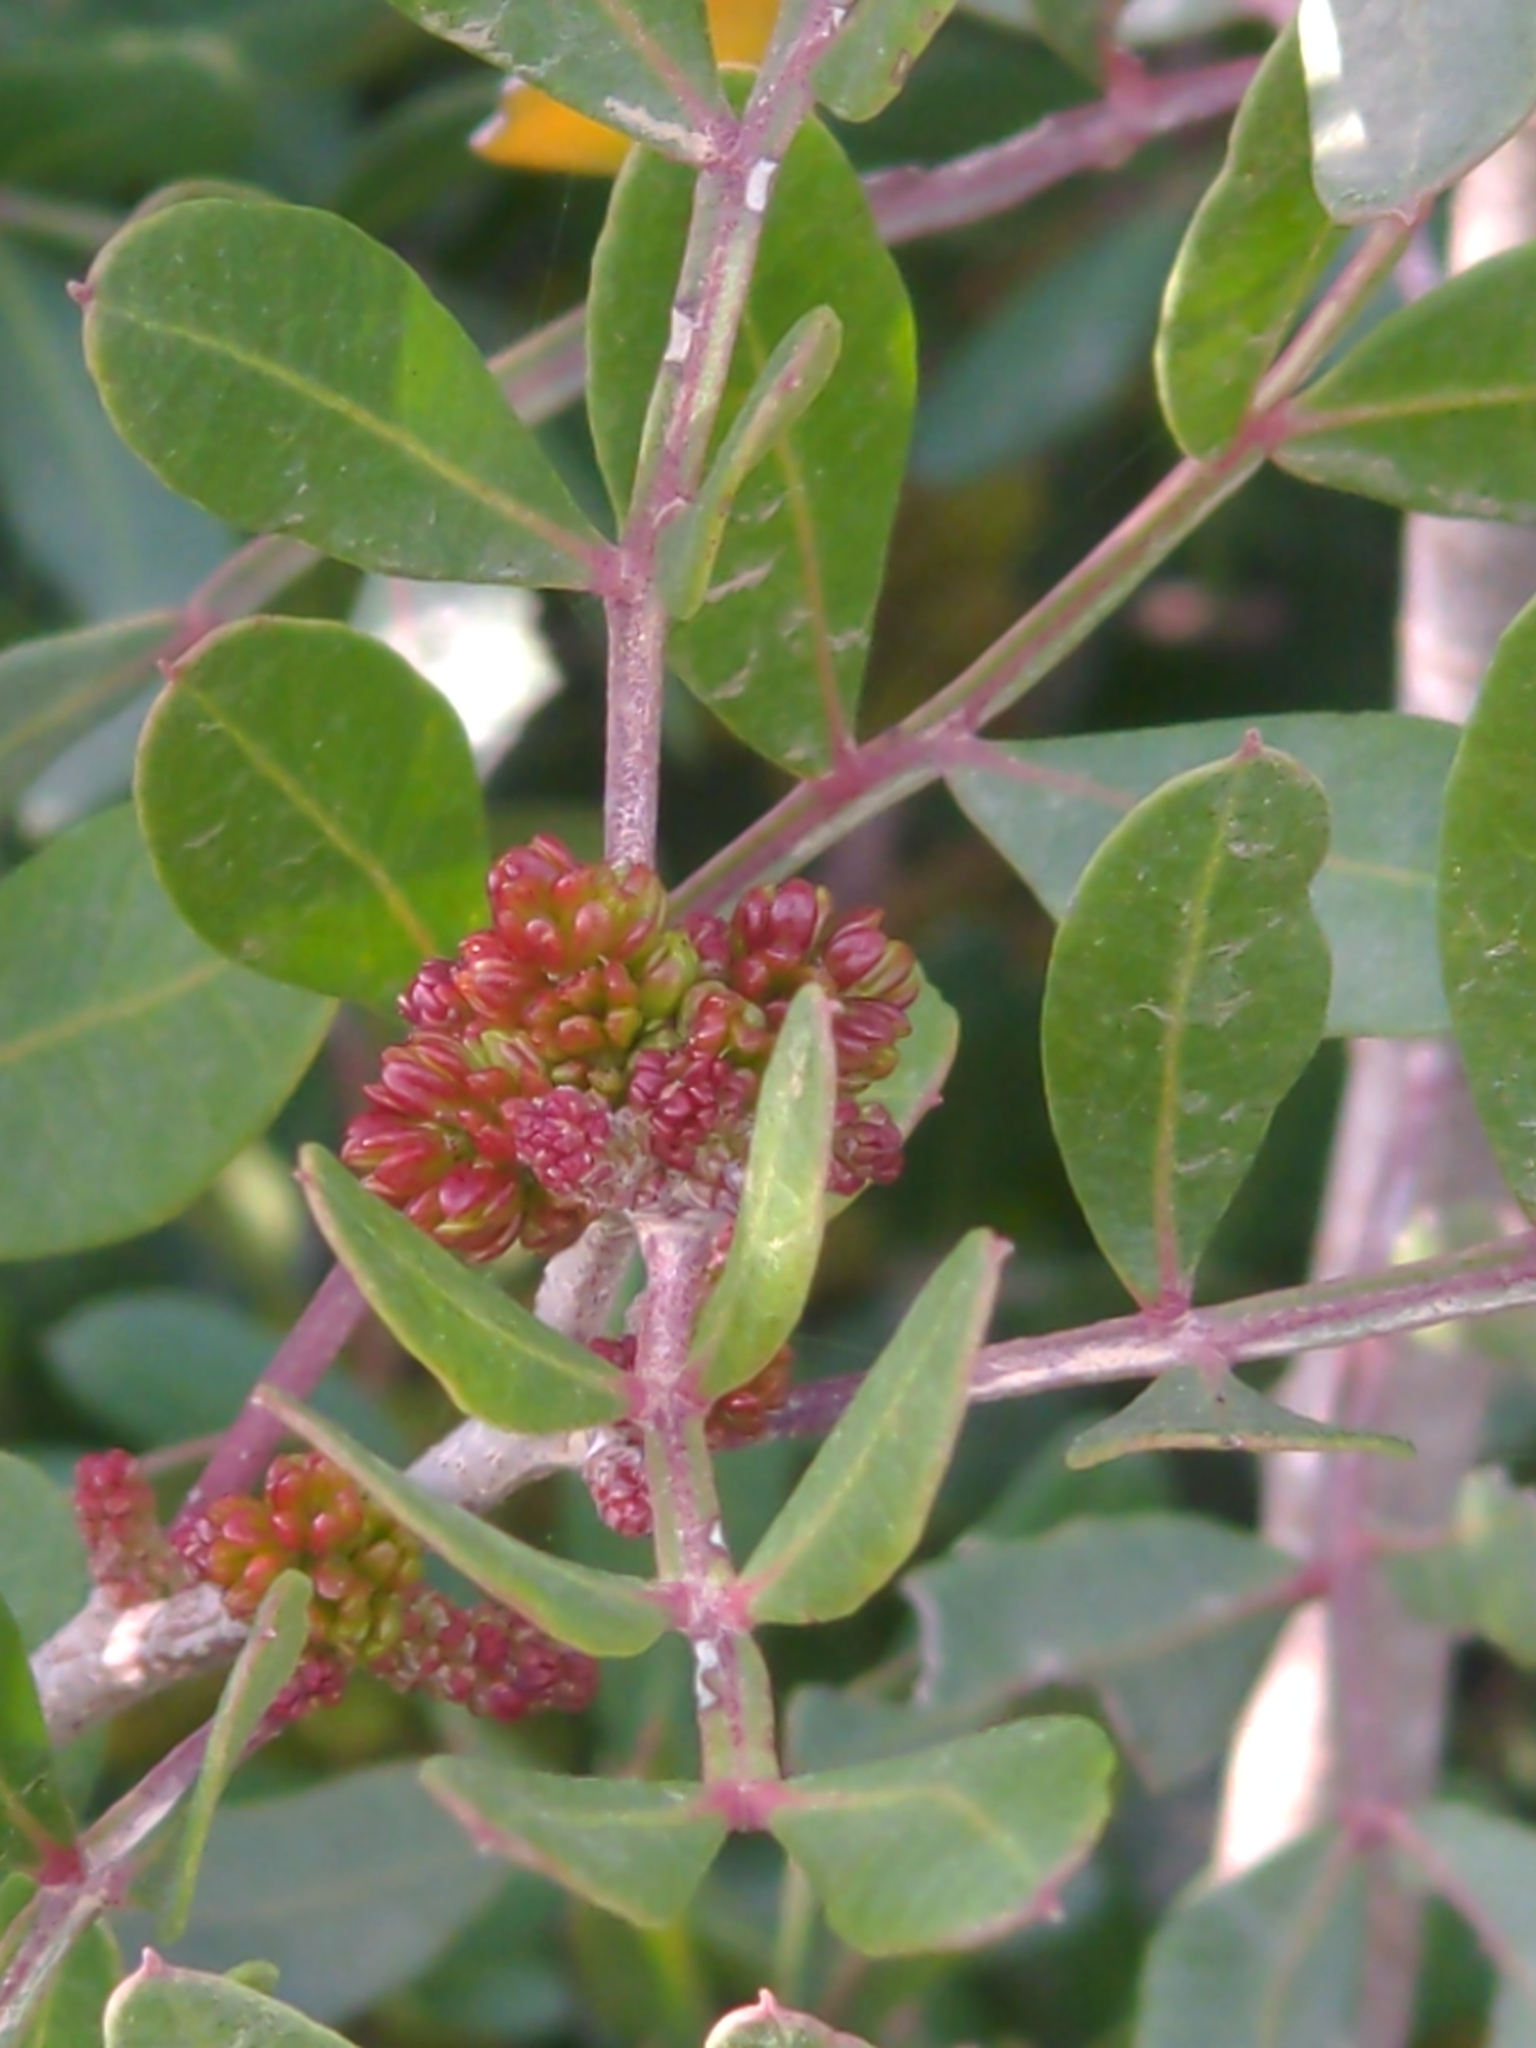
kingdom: Plantae
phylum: Tracheophyta
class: Magnoliopsida
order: Sapindales
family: Anacardiaceae
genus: Pistacia
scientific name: Pistacia lentiscus
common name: Lentisk
